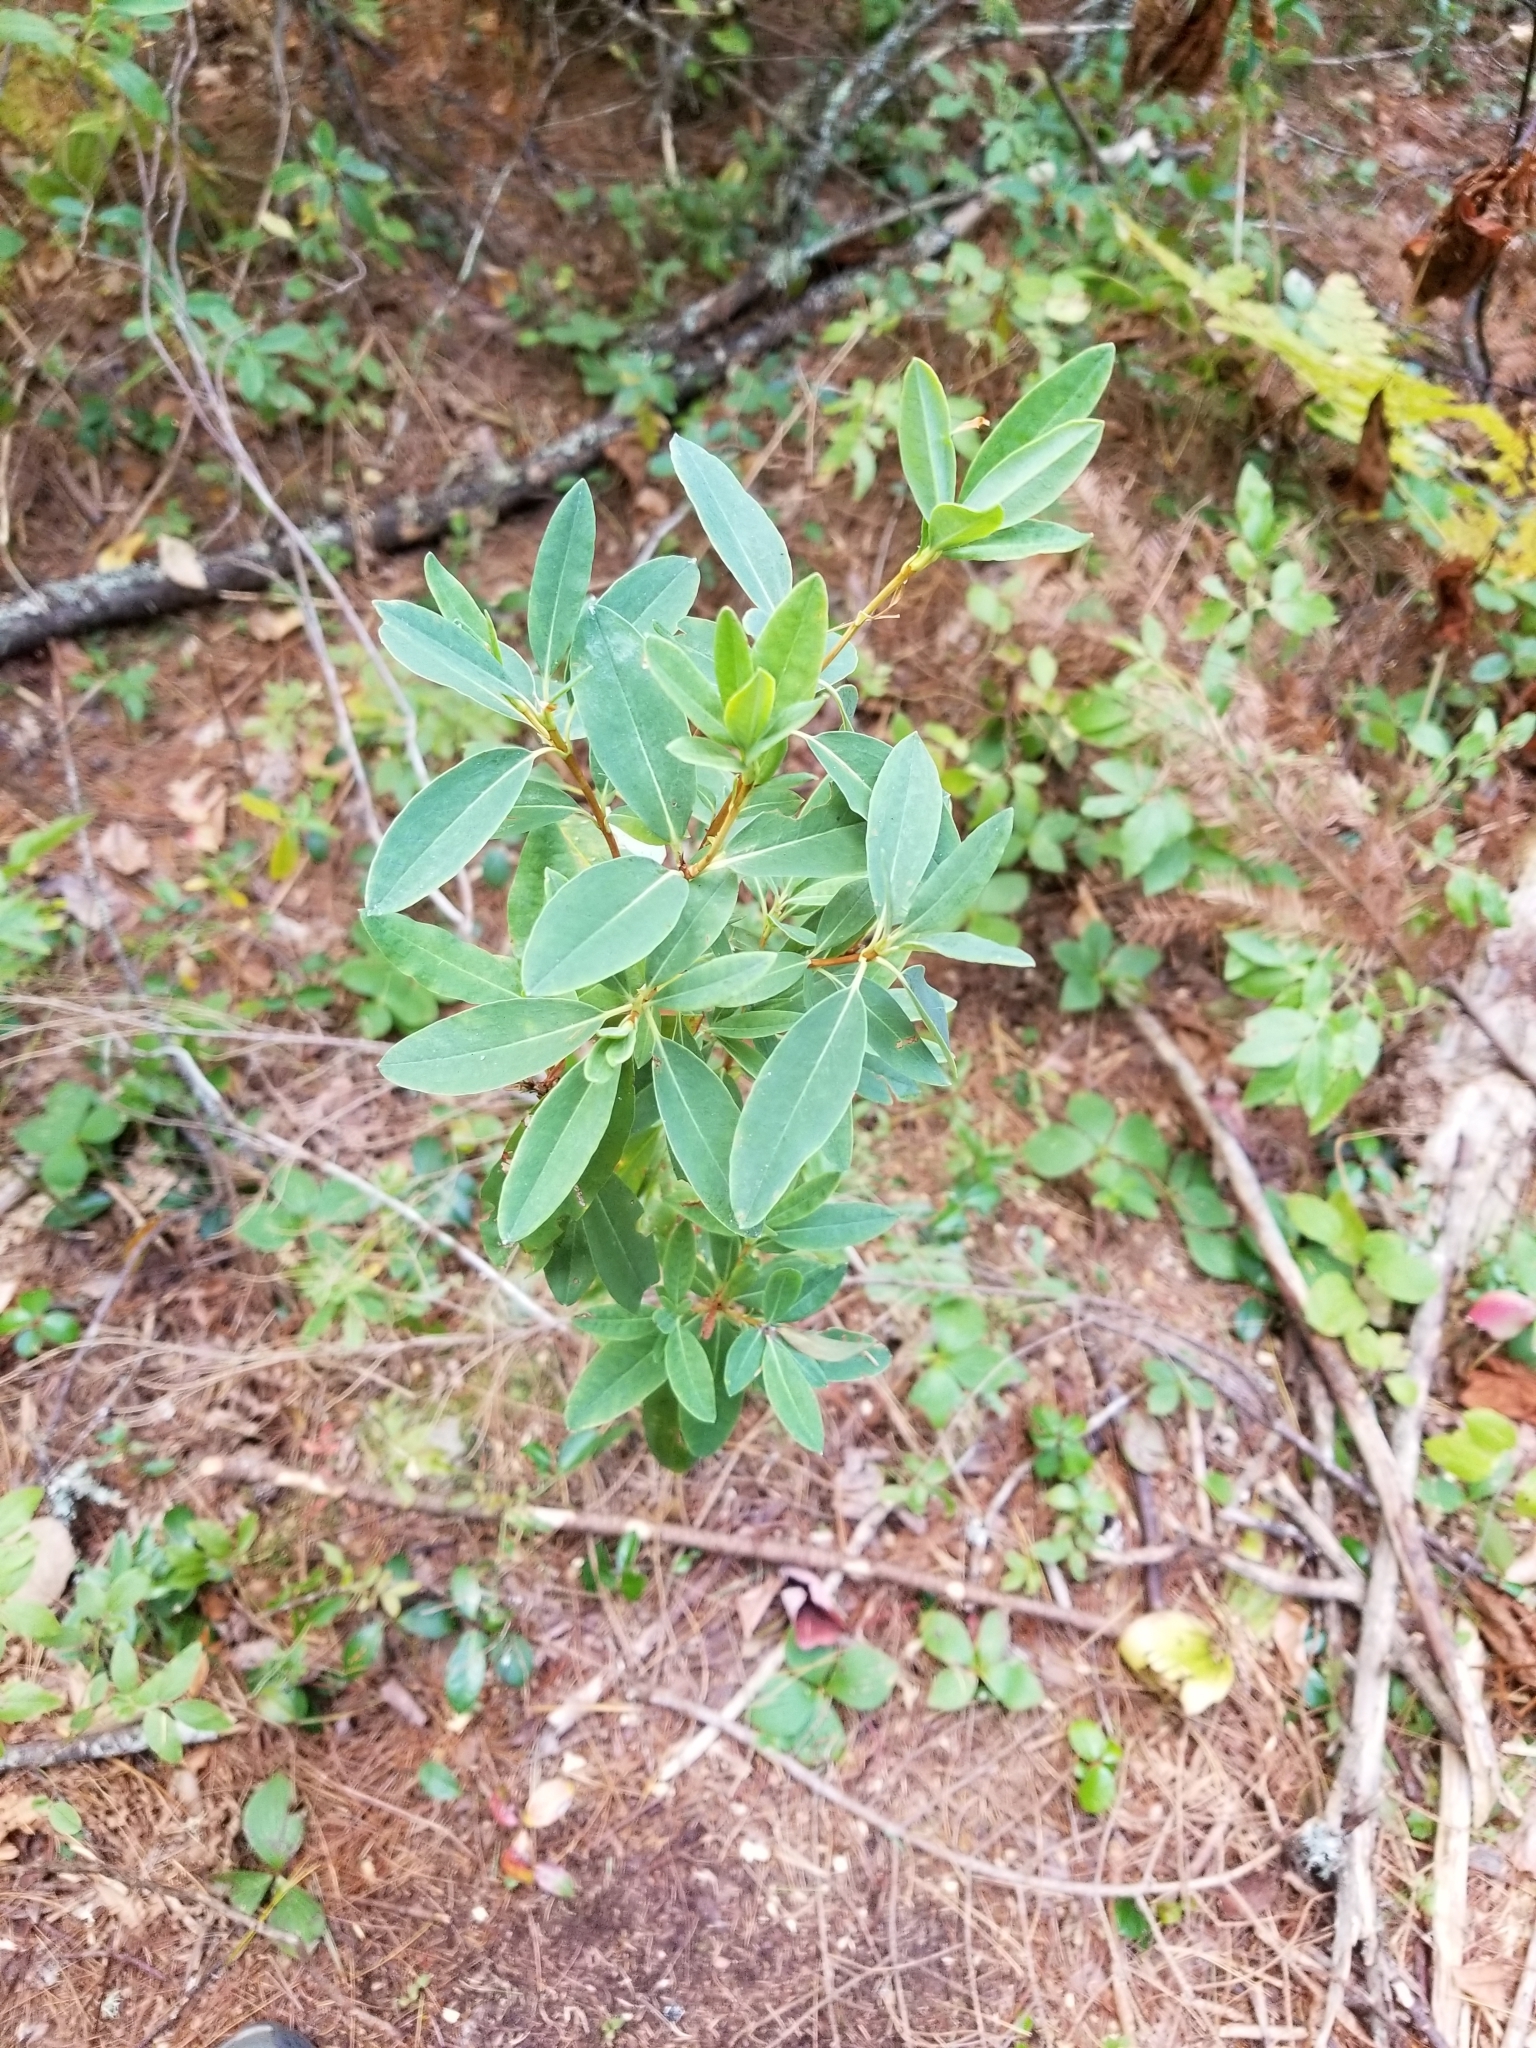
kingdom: Plantae
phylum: Tracheophyta
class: Magnoliopsida
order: Ericales
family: Ericaceae
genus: Kalmia
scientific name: Kalmia angustifolia
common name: Sheep-laurel
